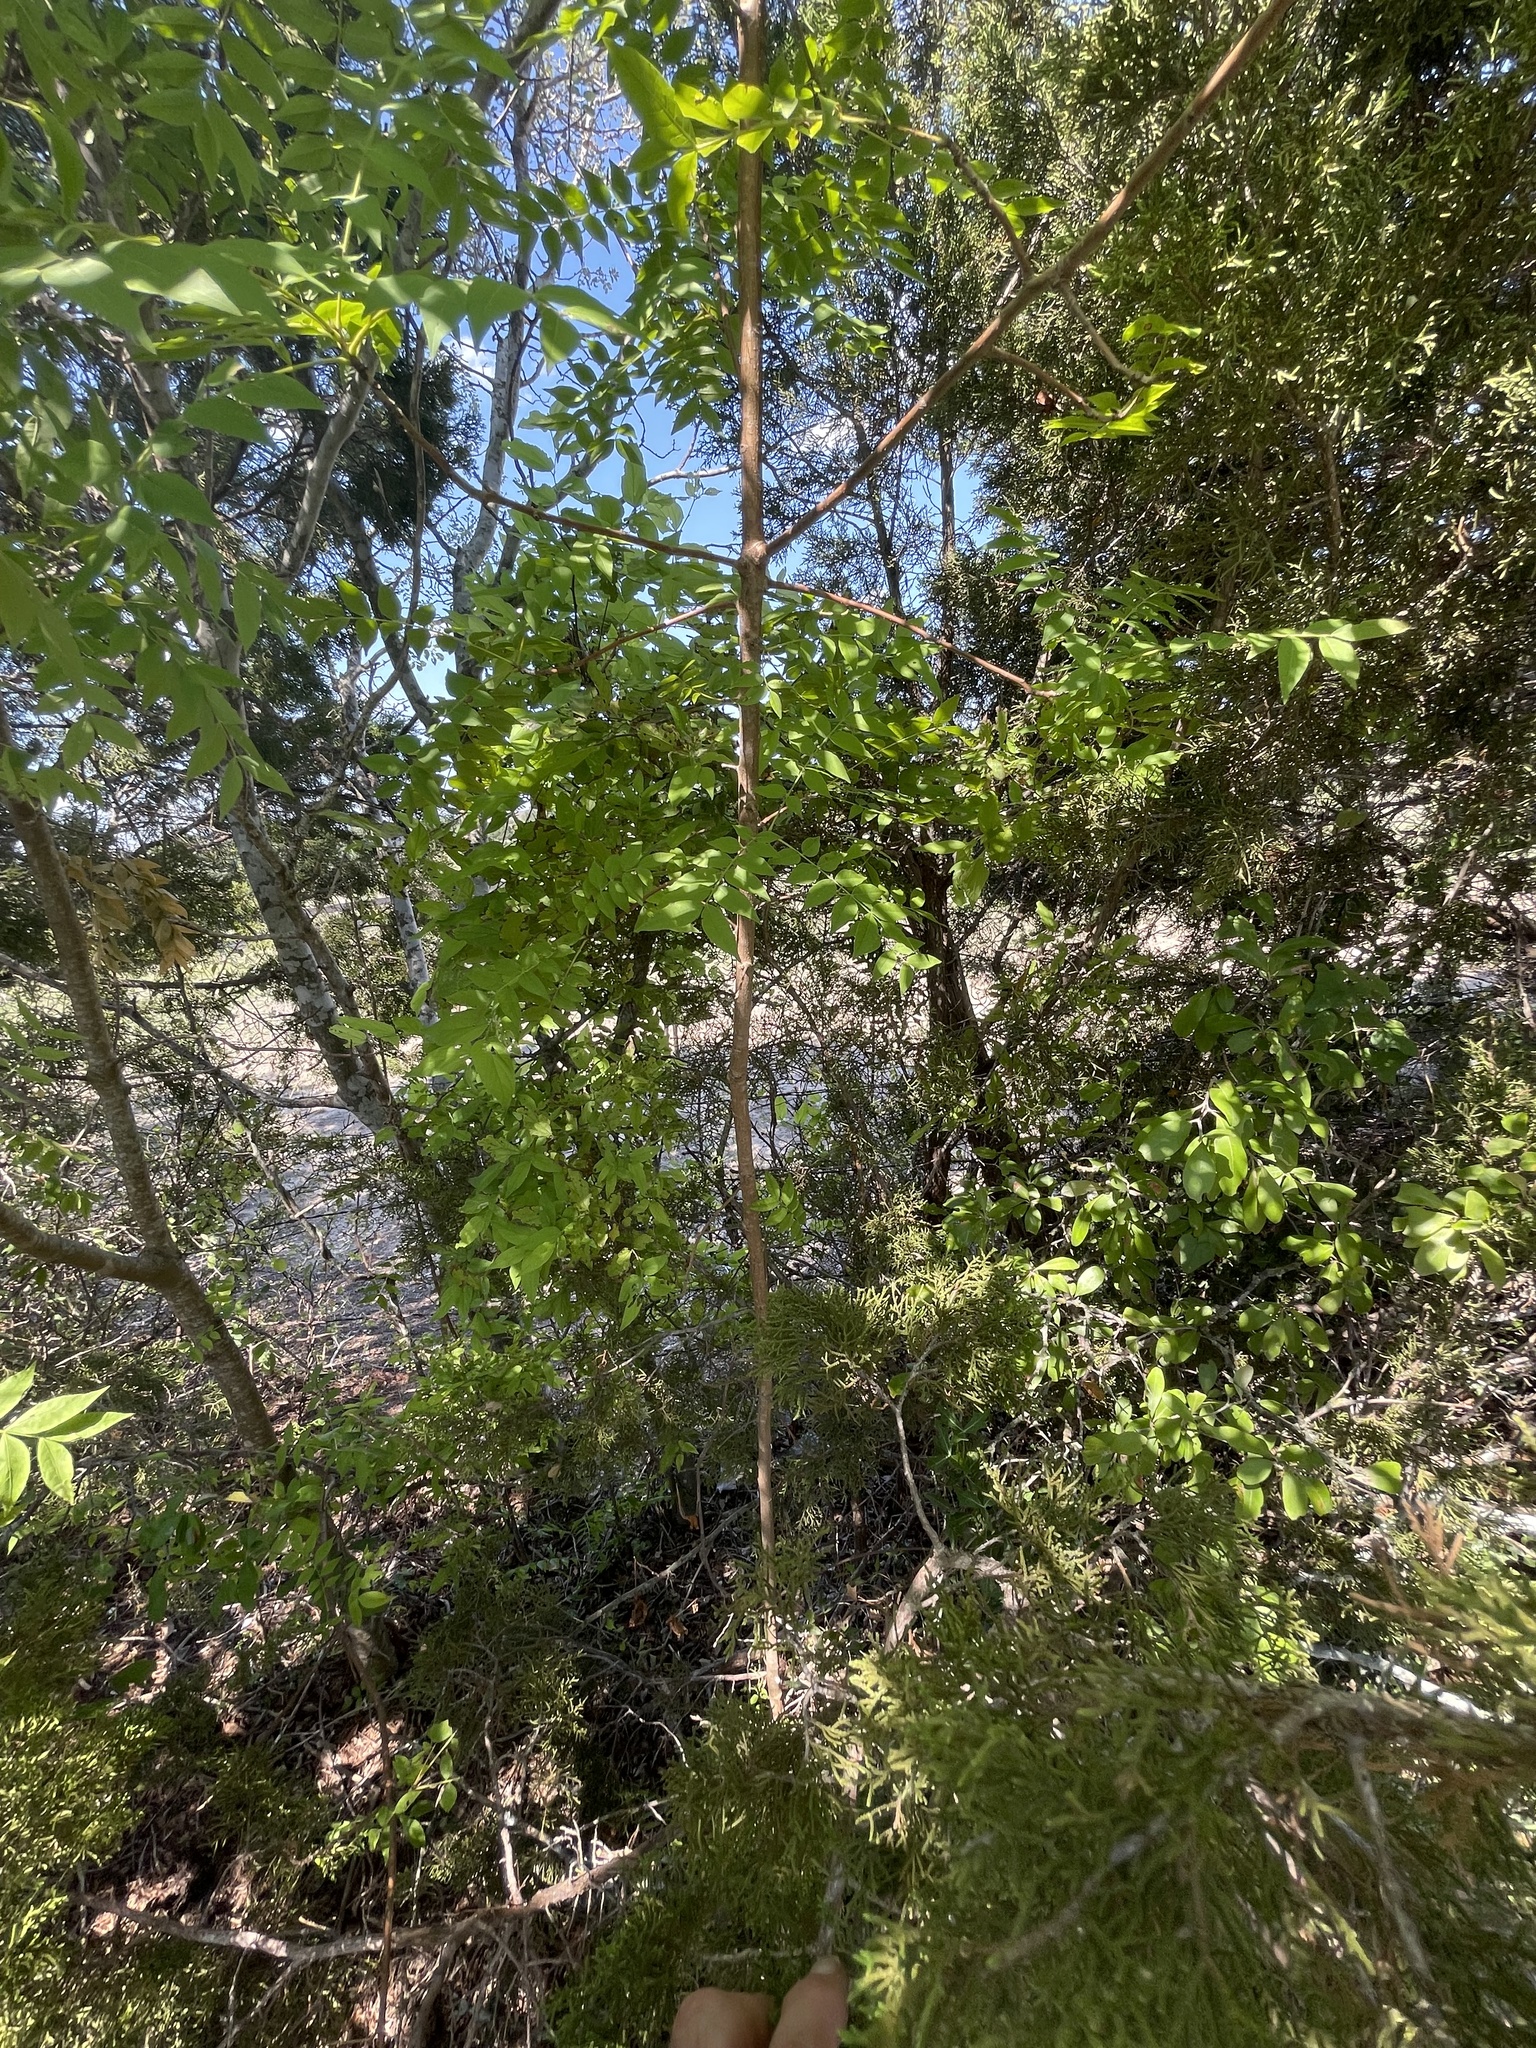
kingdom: Plantae
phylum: Tracheophyta
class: Magnoliopsida
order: Sapindales
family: Anacardiaceae
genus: Pistacia
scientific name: Pistacia chinensis
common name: Chinese pistache
